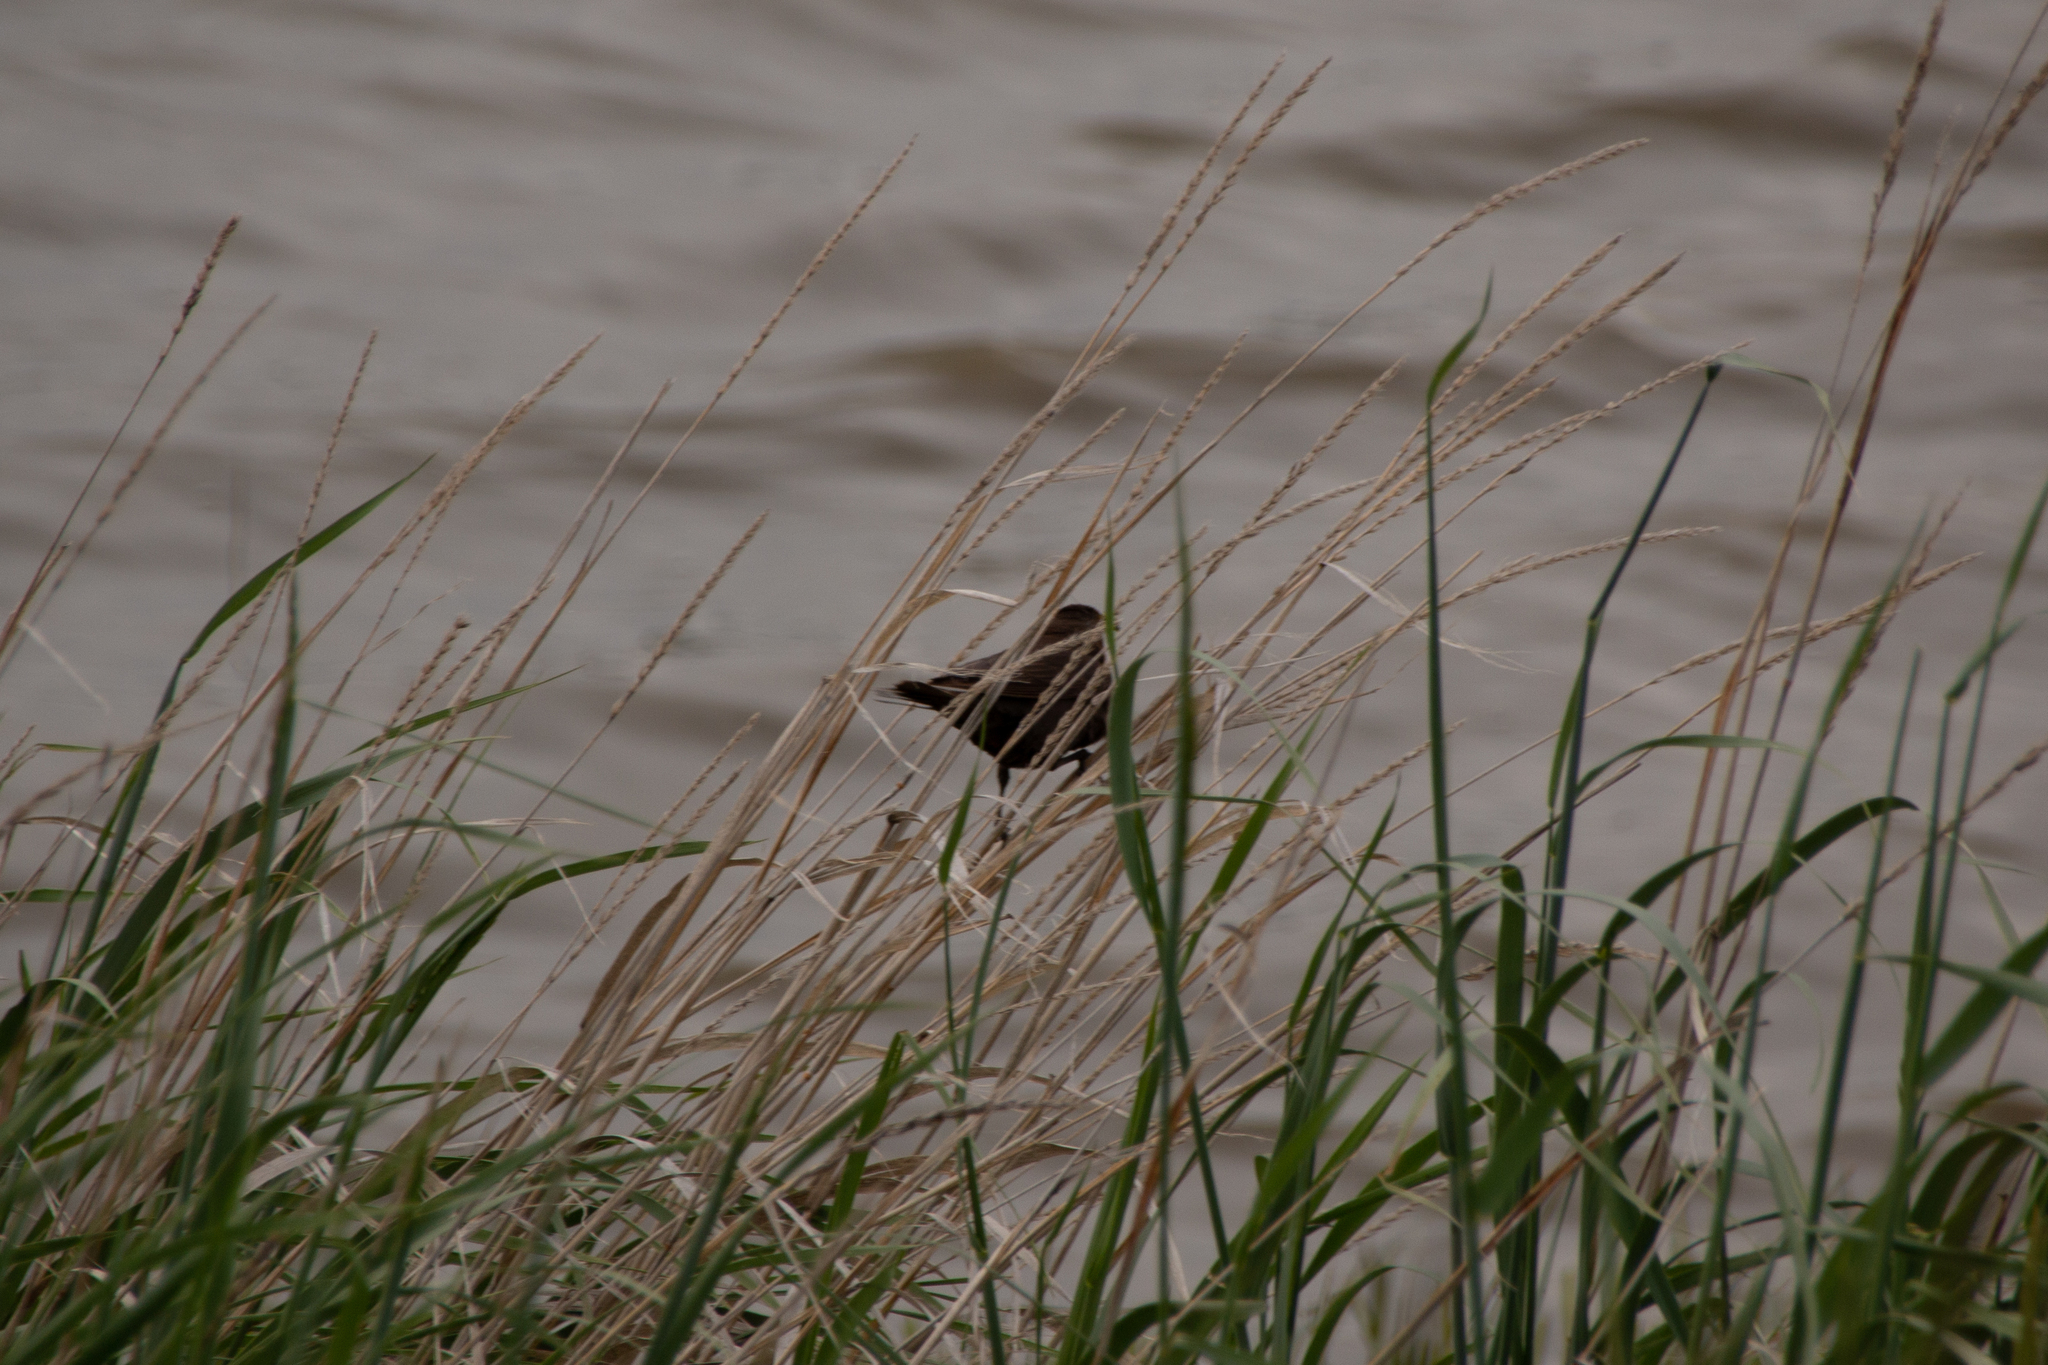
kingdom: Animalia
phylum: Chordata
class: Aves
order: Passeriformes
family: Icteridae
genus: Xanthocephalus
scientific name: Xanthocephalus xanthocephalus
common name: Yellow-headed blackbird
